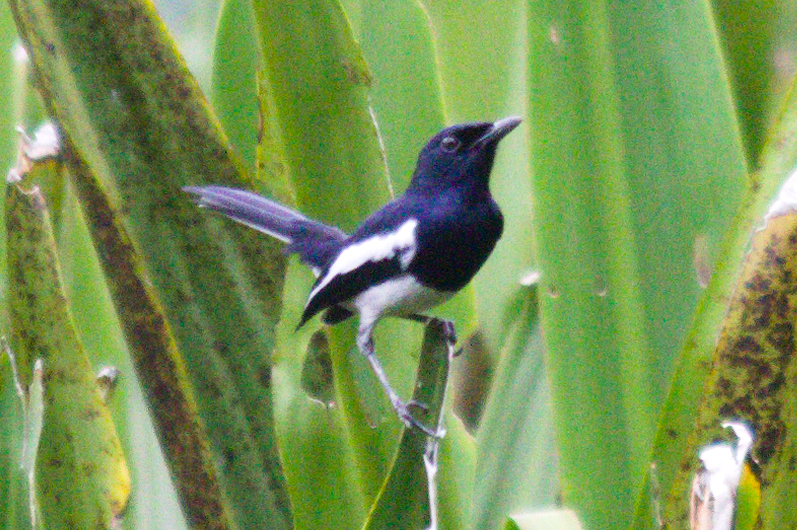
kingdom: Animalia
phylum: Chordata
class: Aves
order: Passeriformes
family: Muscicapidae
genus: Copsychus
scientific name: Copsychus saularis
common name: Oriental magpie-robin
